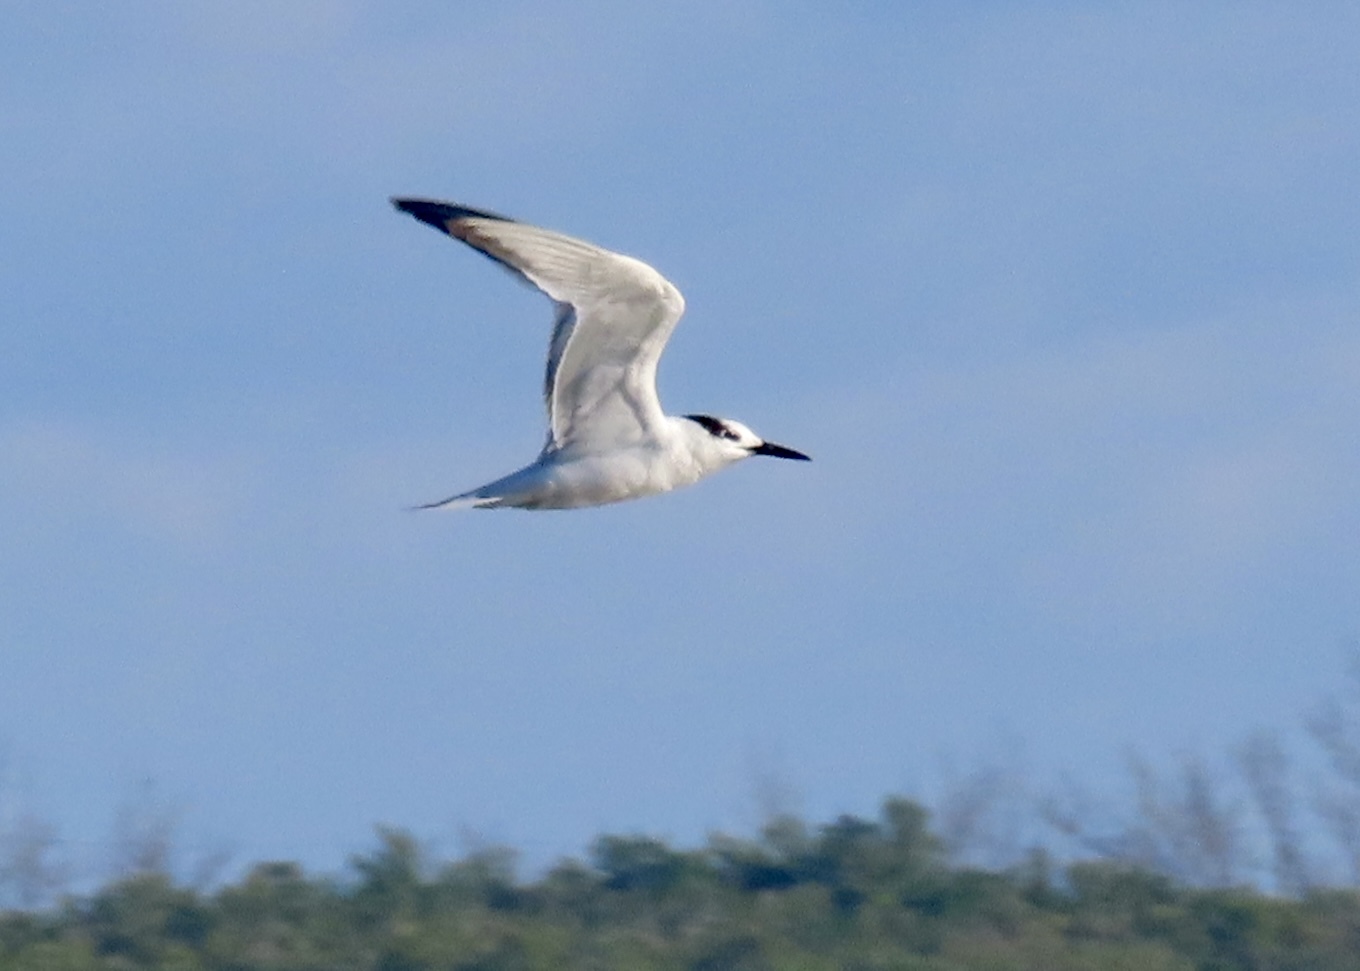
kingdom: Animalia
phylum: Chordata
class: Aves
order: Charadriiformes
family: Laridae
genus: Thalasseus
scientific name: Thalasseus acuflavidus
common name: Cabot's tern
